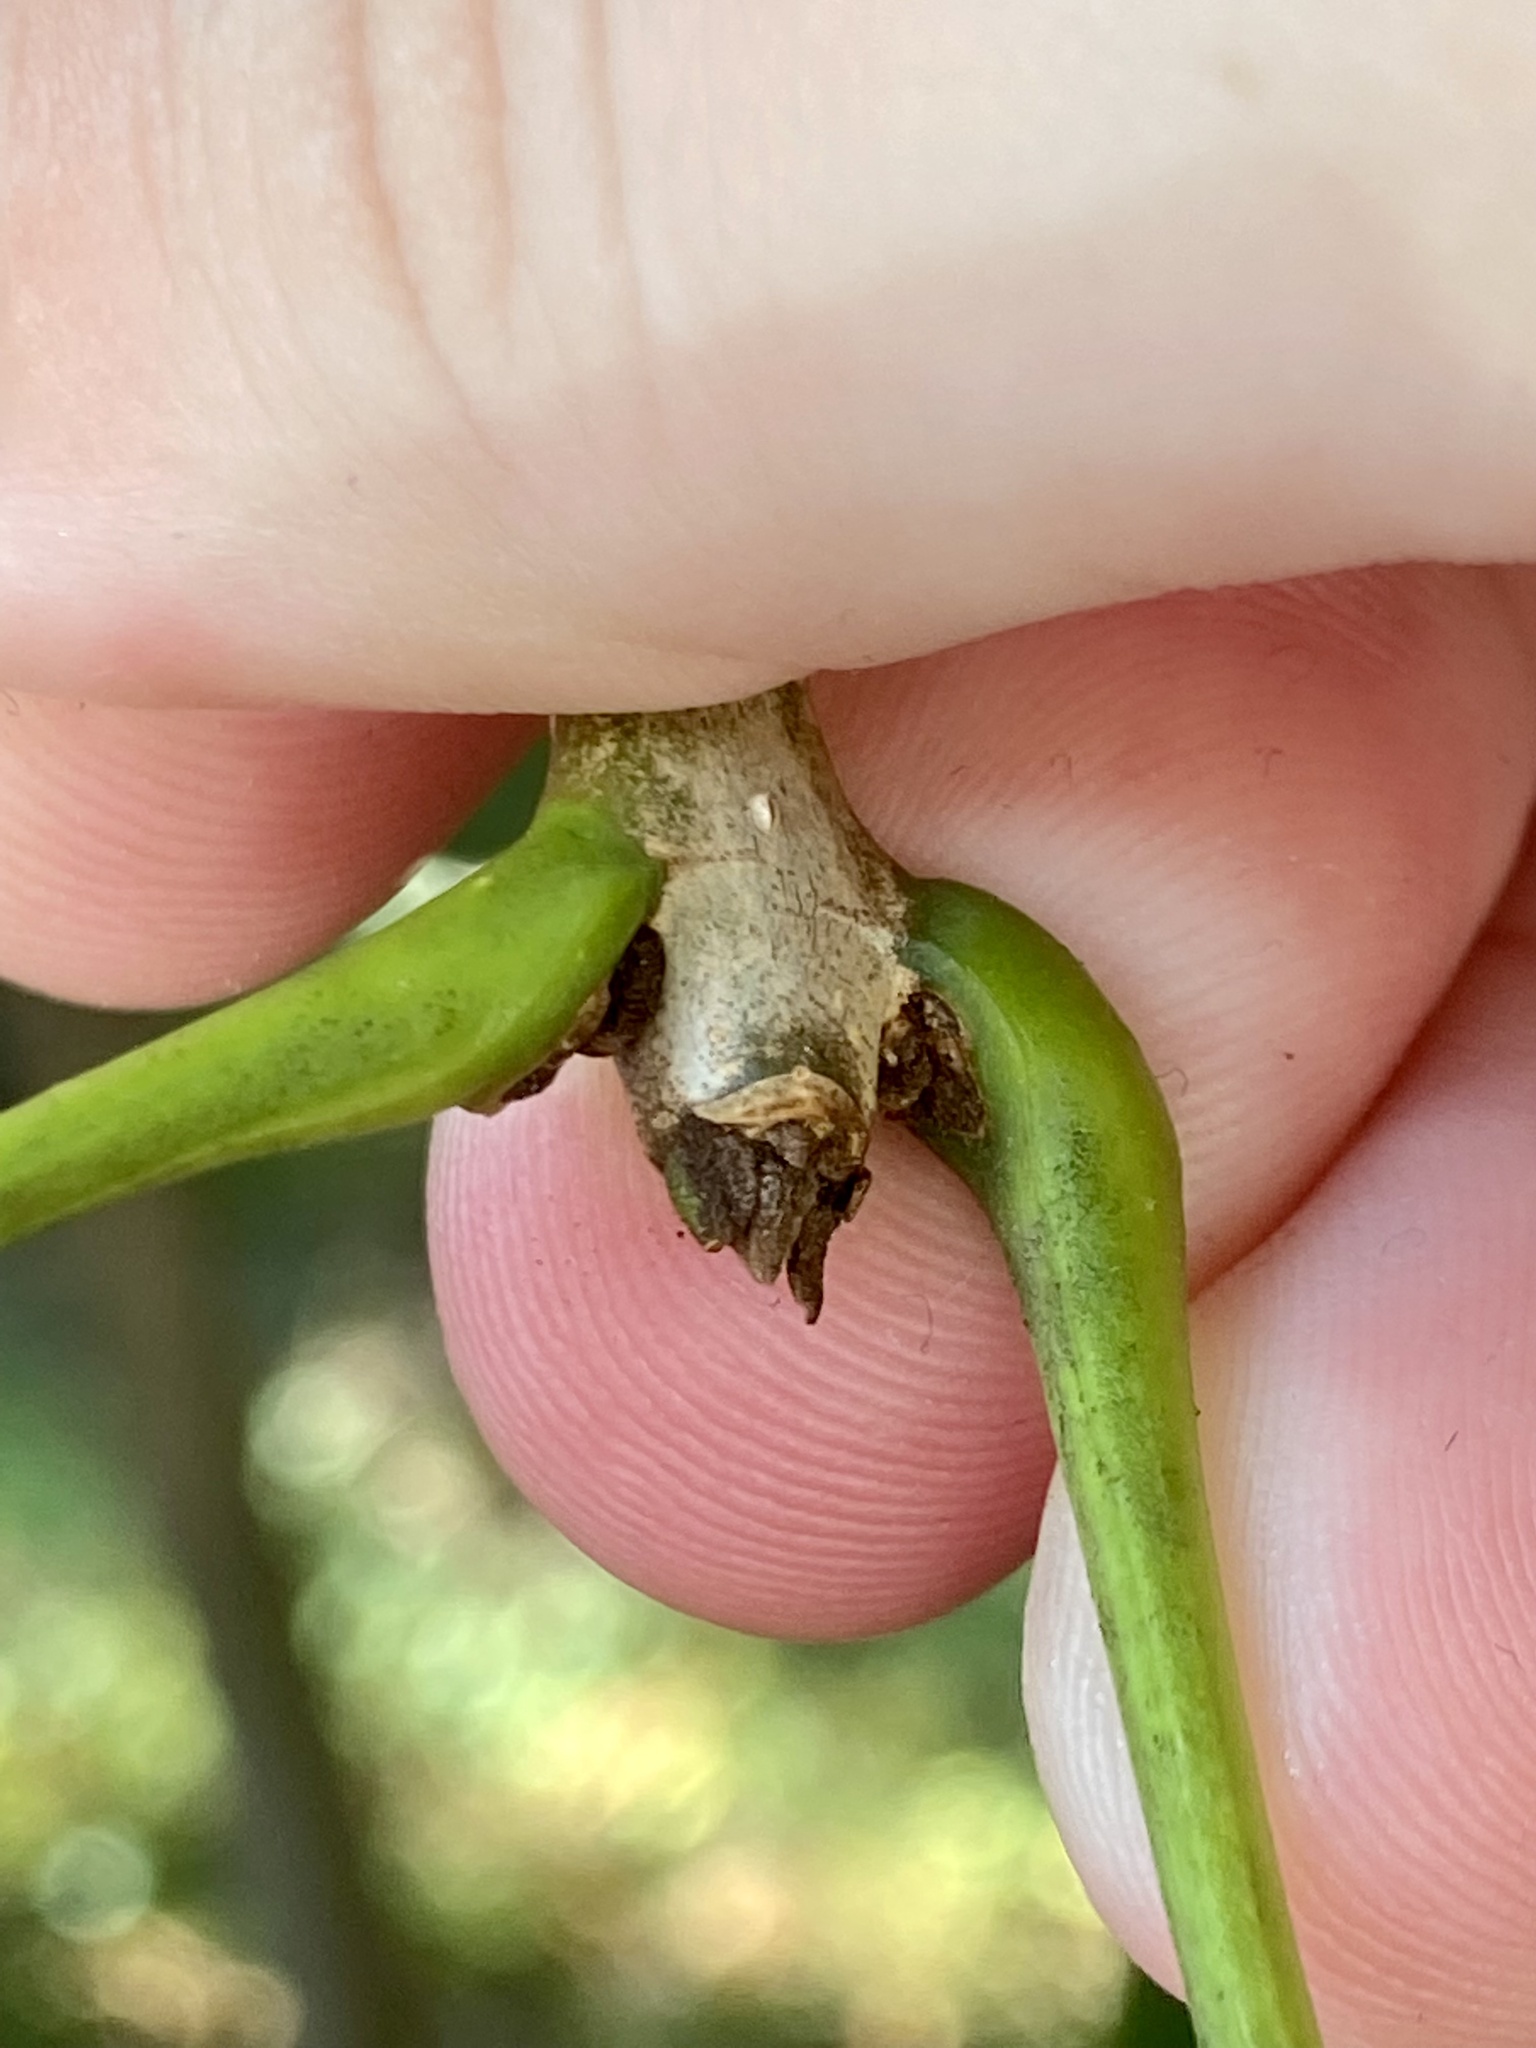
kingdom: Plantae
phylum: Tracheophyta
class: Magnoliopsida
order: Lamiales
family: Oleaceae
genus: Fraxinus
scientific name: Fraxinus pennsylvanica
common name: Green ash
